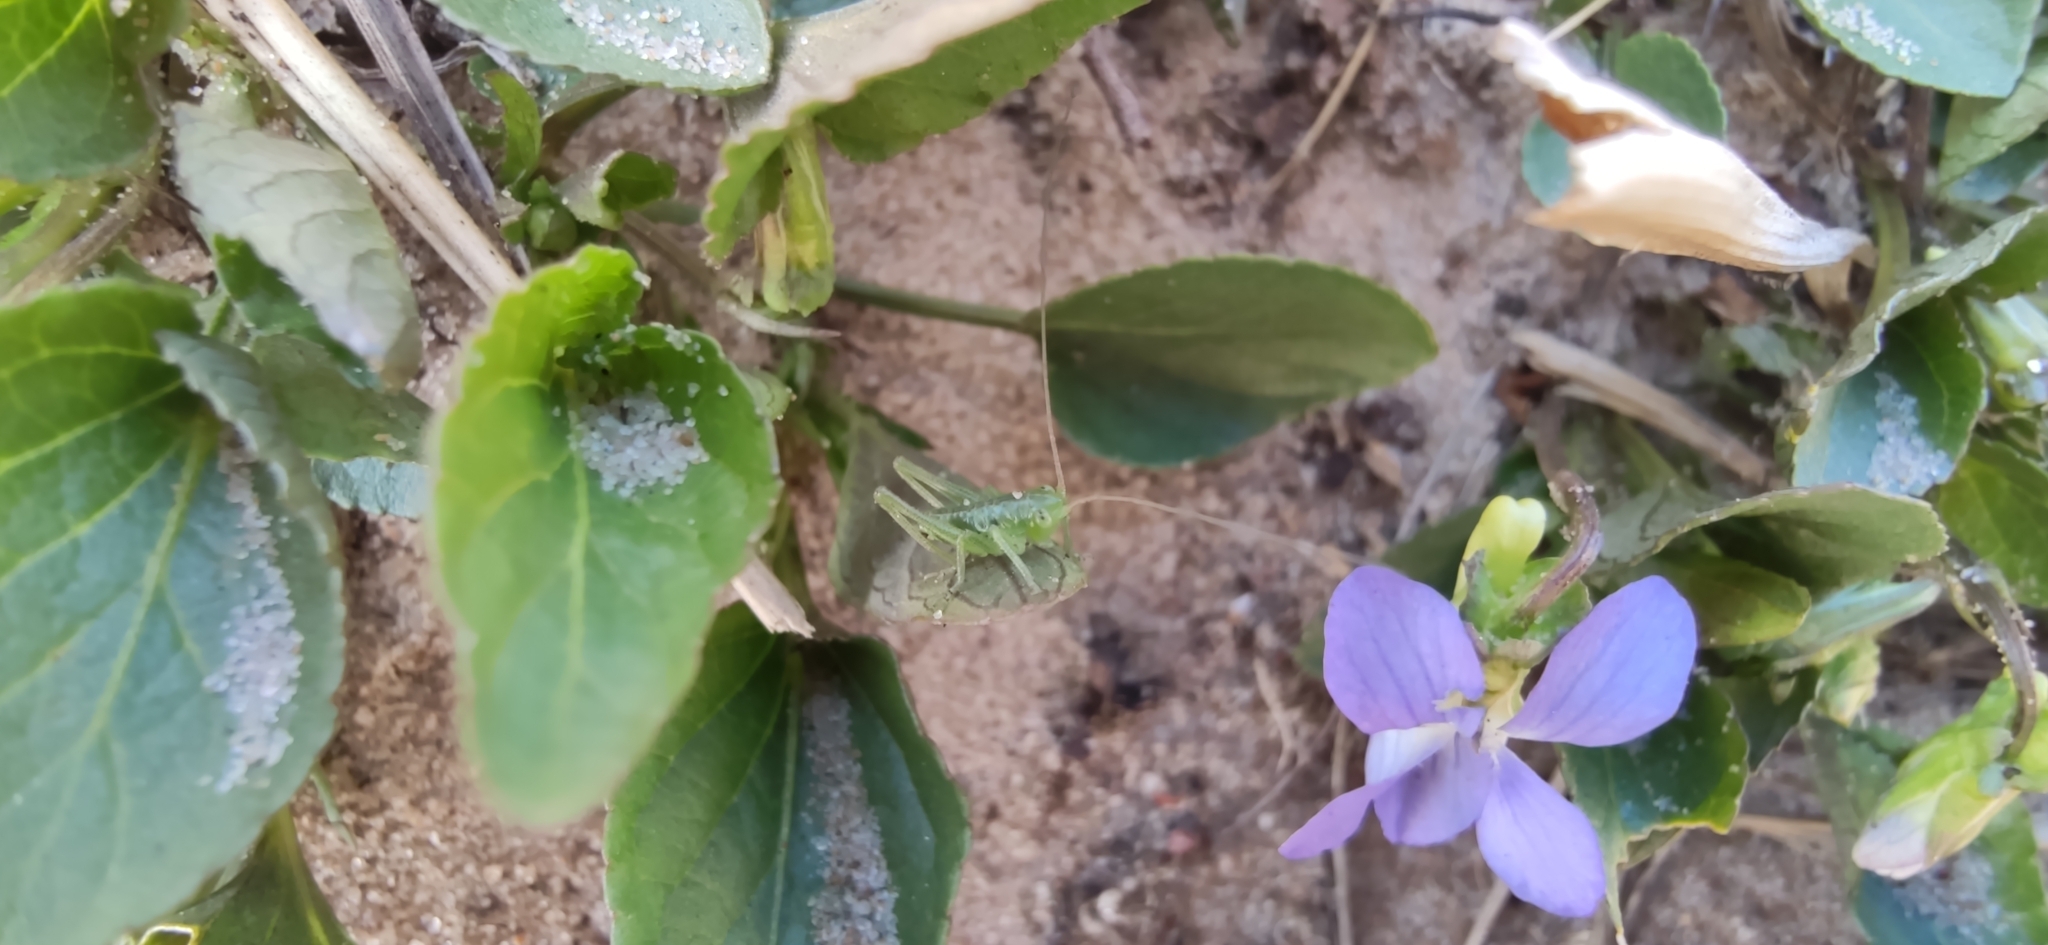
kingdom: Animalia
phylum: Arthropoda
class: Insecta
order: Orthoptera
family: Tettigoniidae
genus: Tettigonia
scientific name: Tettigonia cantans
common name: Upland green bush-cricket
